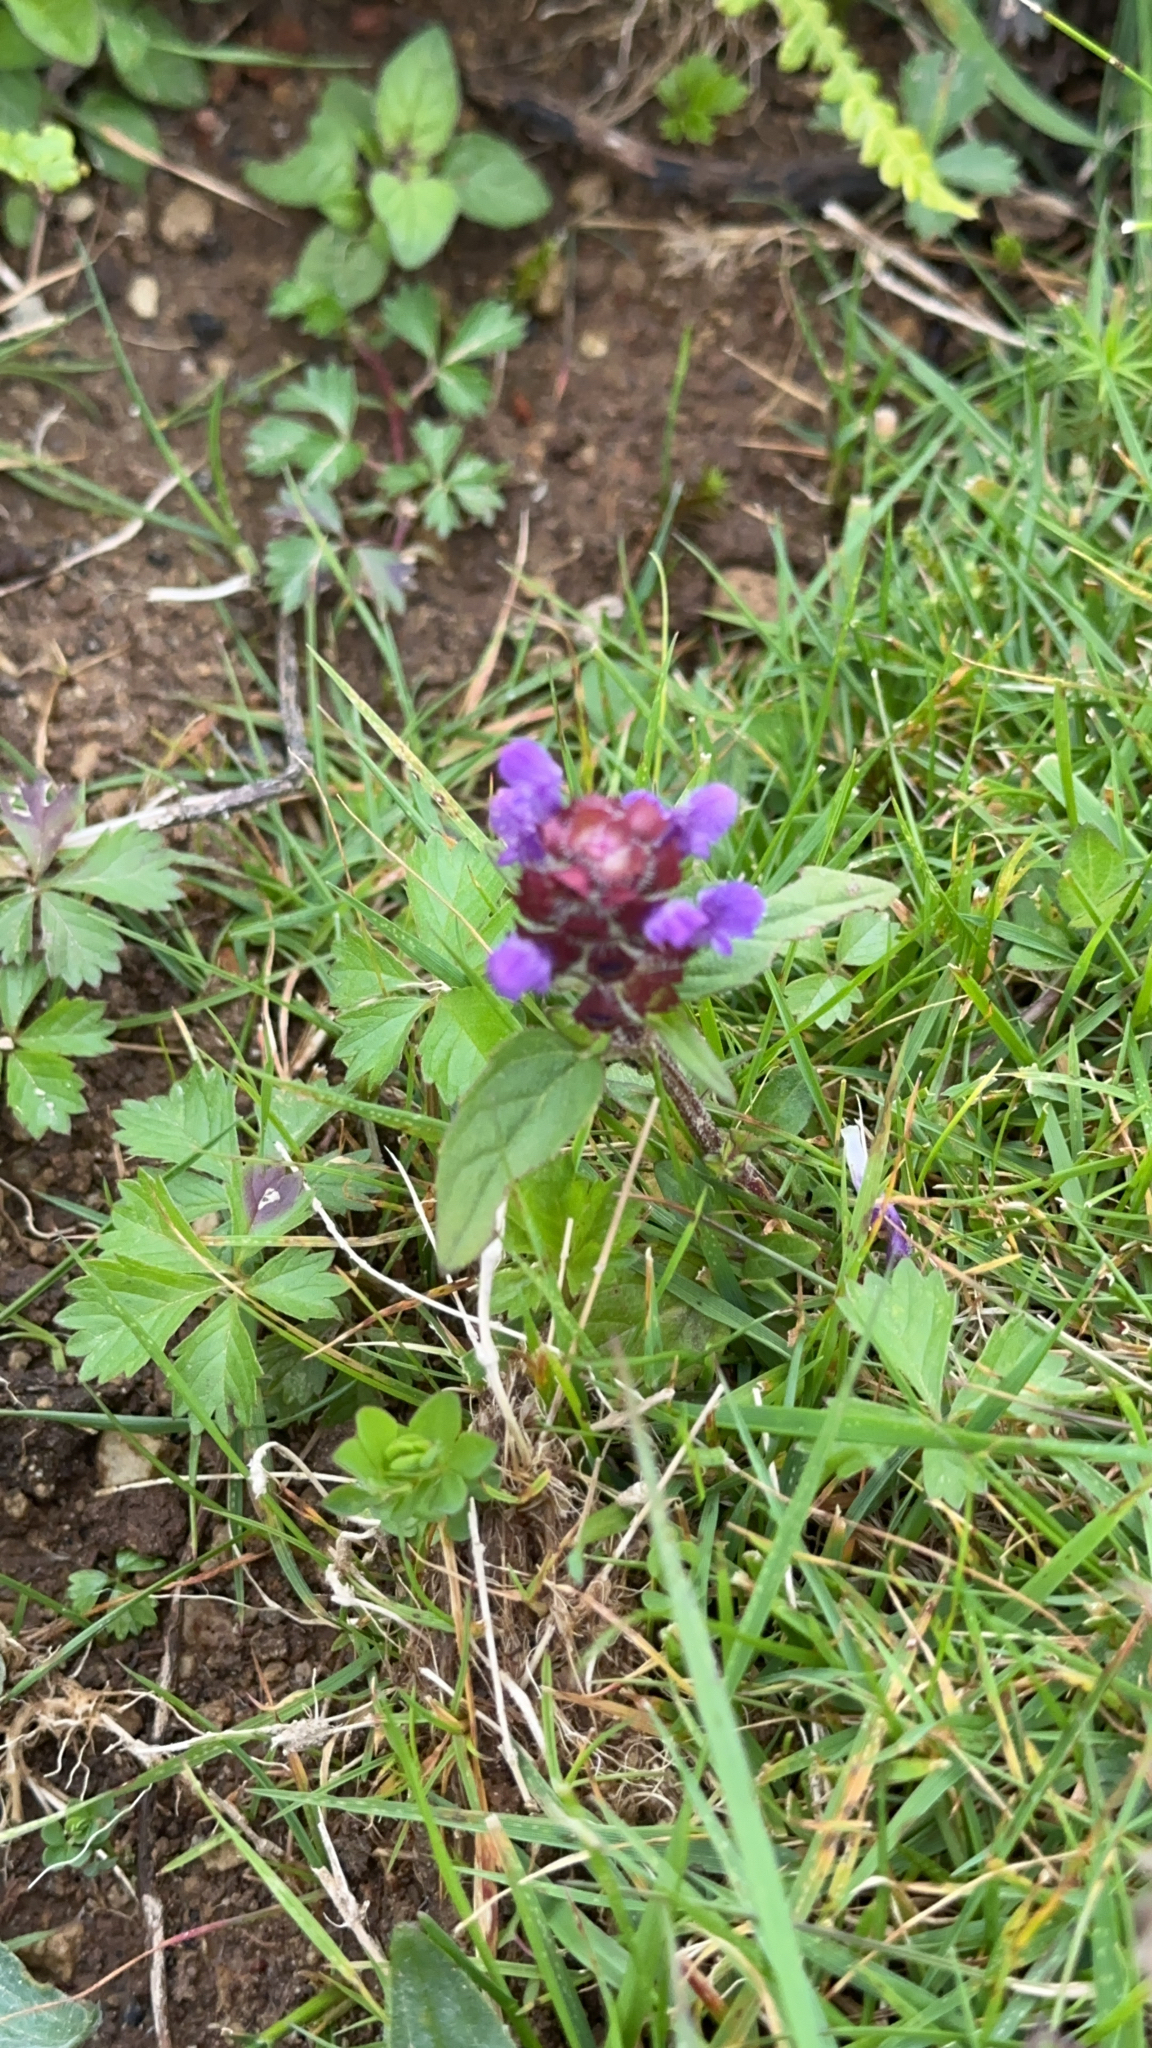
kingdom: Plantae
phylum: Tracheophyta
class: Magnoliopsida
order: Lamiales
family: Lamiaceae
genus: Prunella
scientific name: Prunella vulgaris
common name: Heal-all
